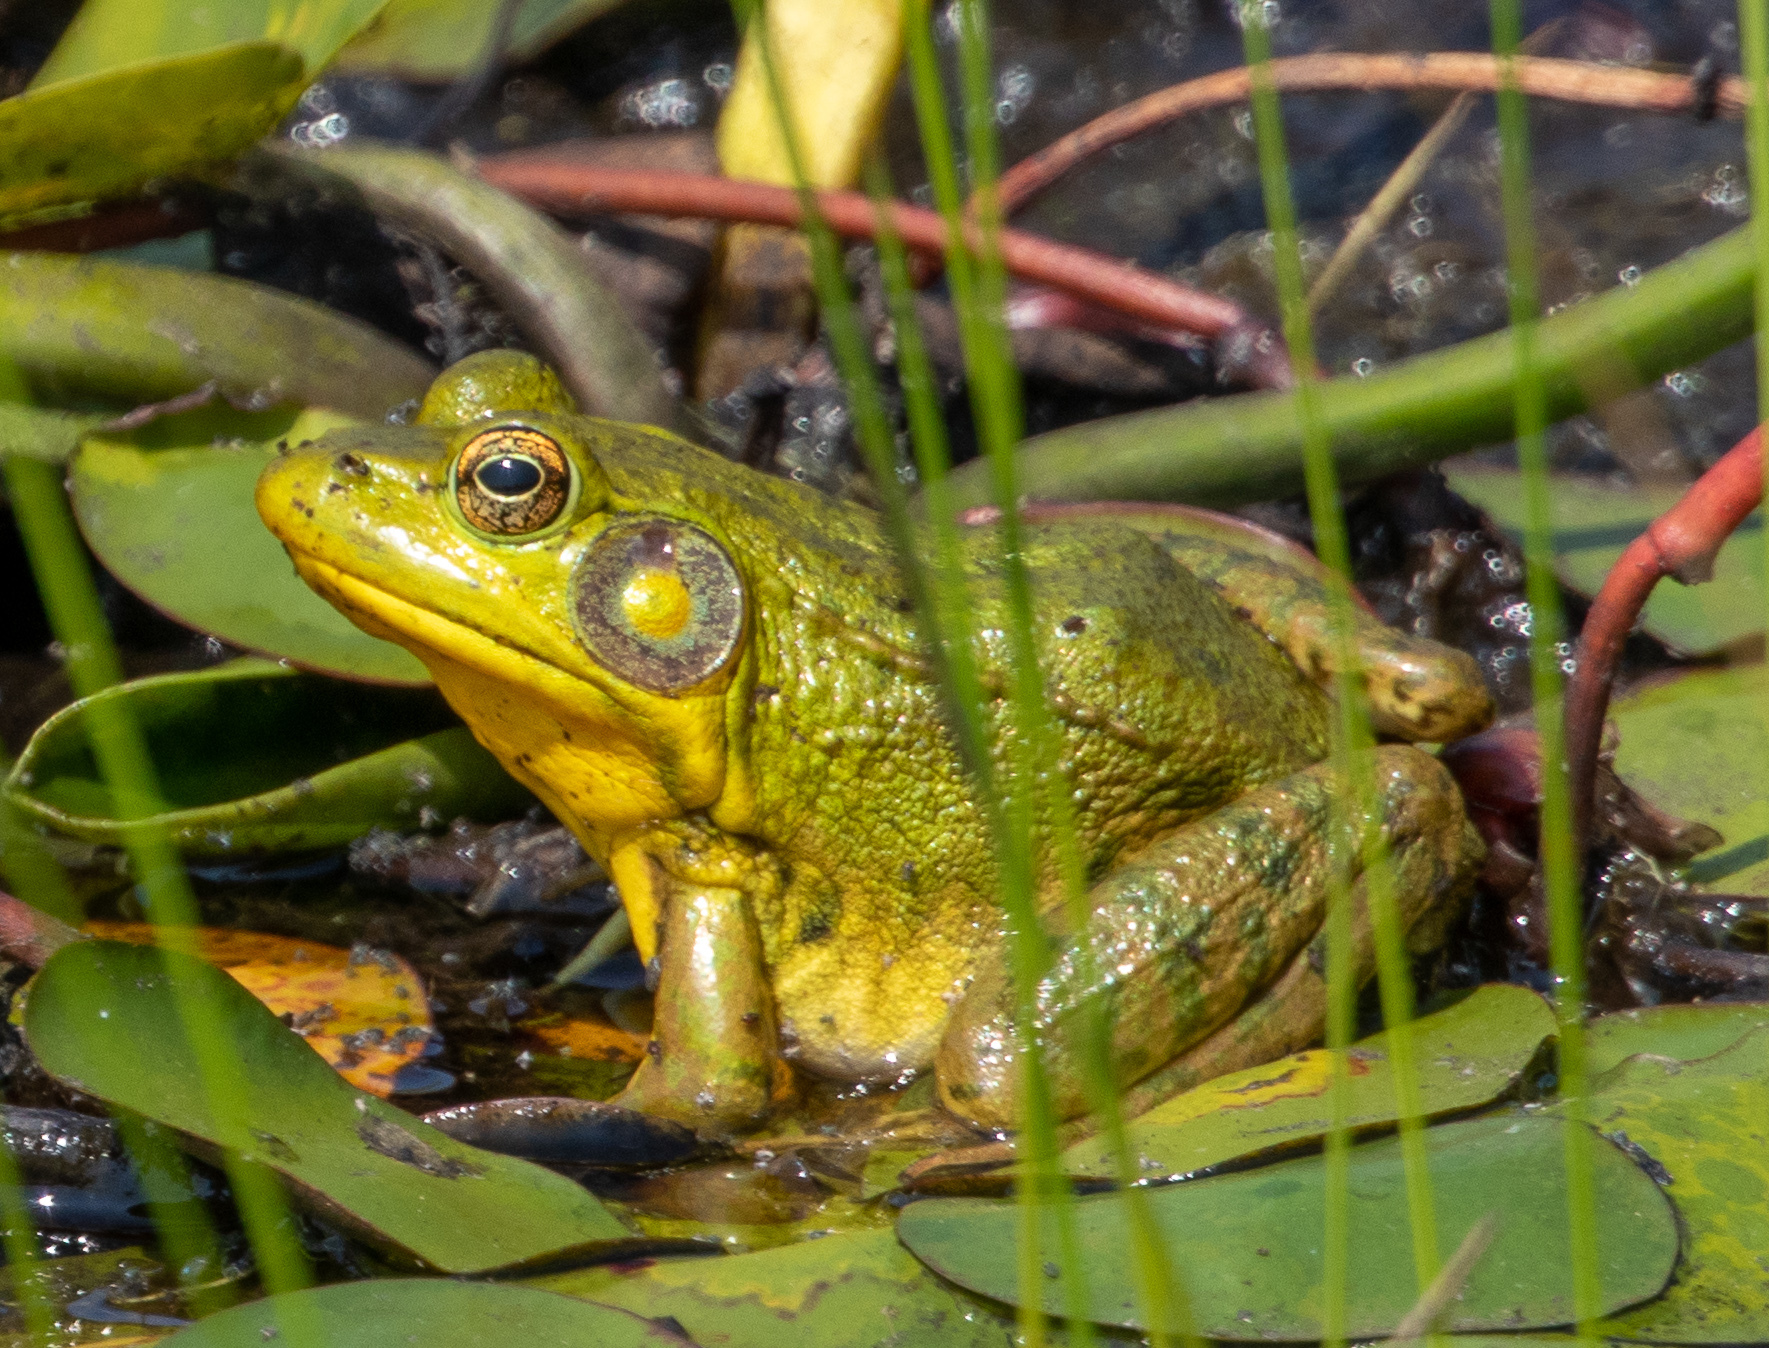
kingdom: Animalia
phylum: Chordata
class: Amphibia
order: Anura
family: Ranidae
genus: Lithobates
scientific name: Lithobates clamitans
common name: Green frog
